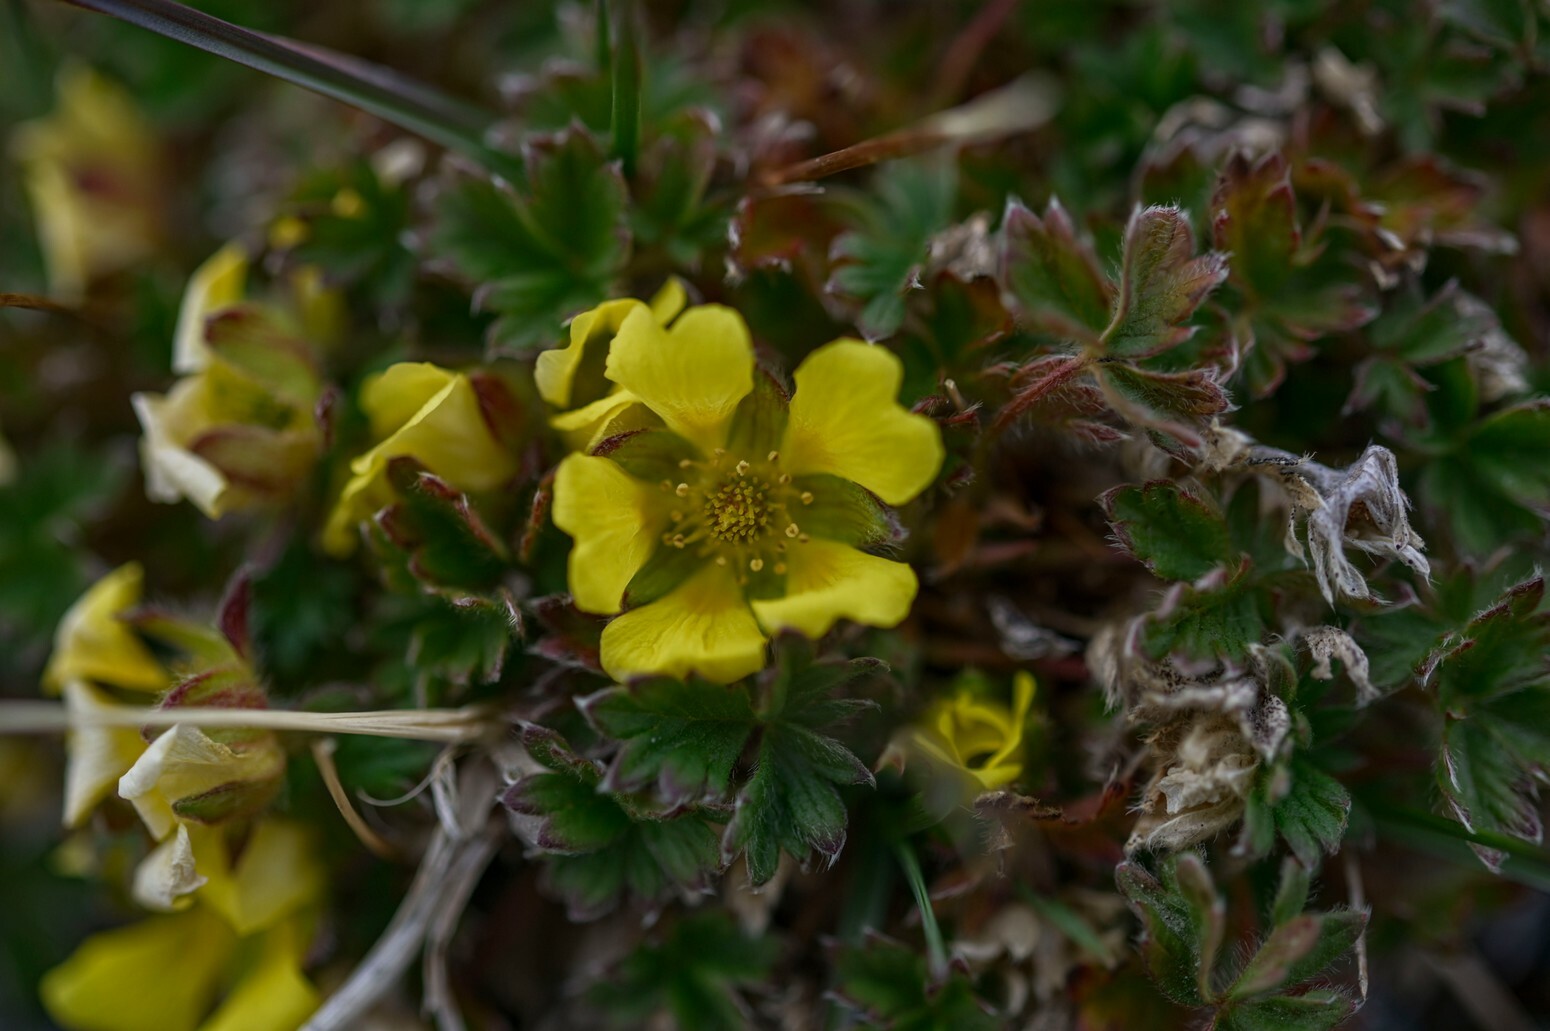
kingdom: Plantae
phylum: Tracheophyta
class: Magnoliopsida
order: Rosales
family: Rosaceae
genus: Potentilla
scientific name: Potentilla hyparctica
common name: Arctic cinquefoil
